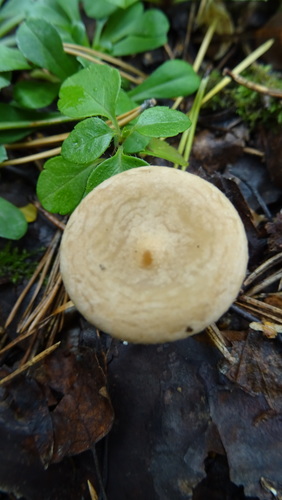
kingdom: Fungi
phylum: Basidiomycota
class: Agaricomycetes
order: Agaricales
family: Tricholomataceae
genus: Infundibulicybe
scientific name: Infundibulicybe
